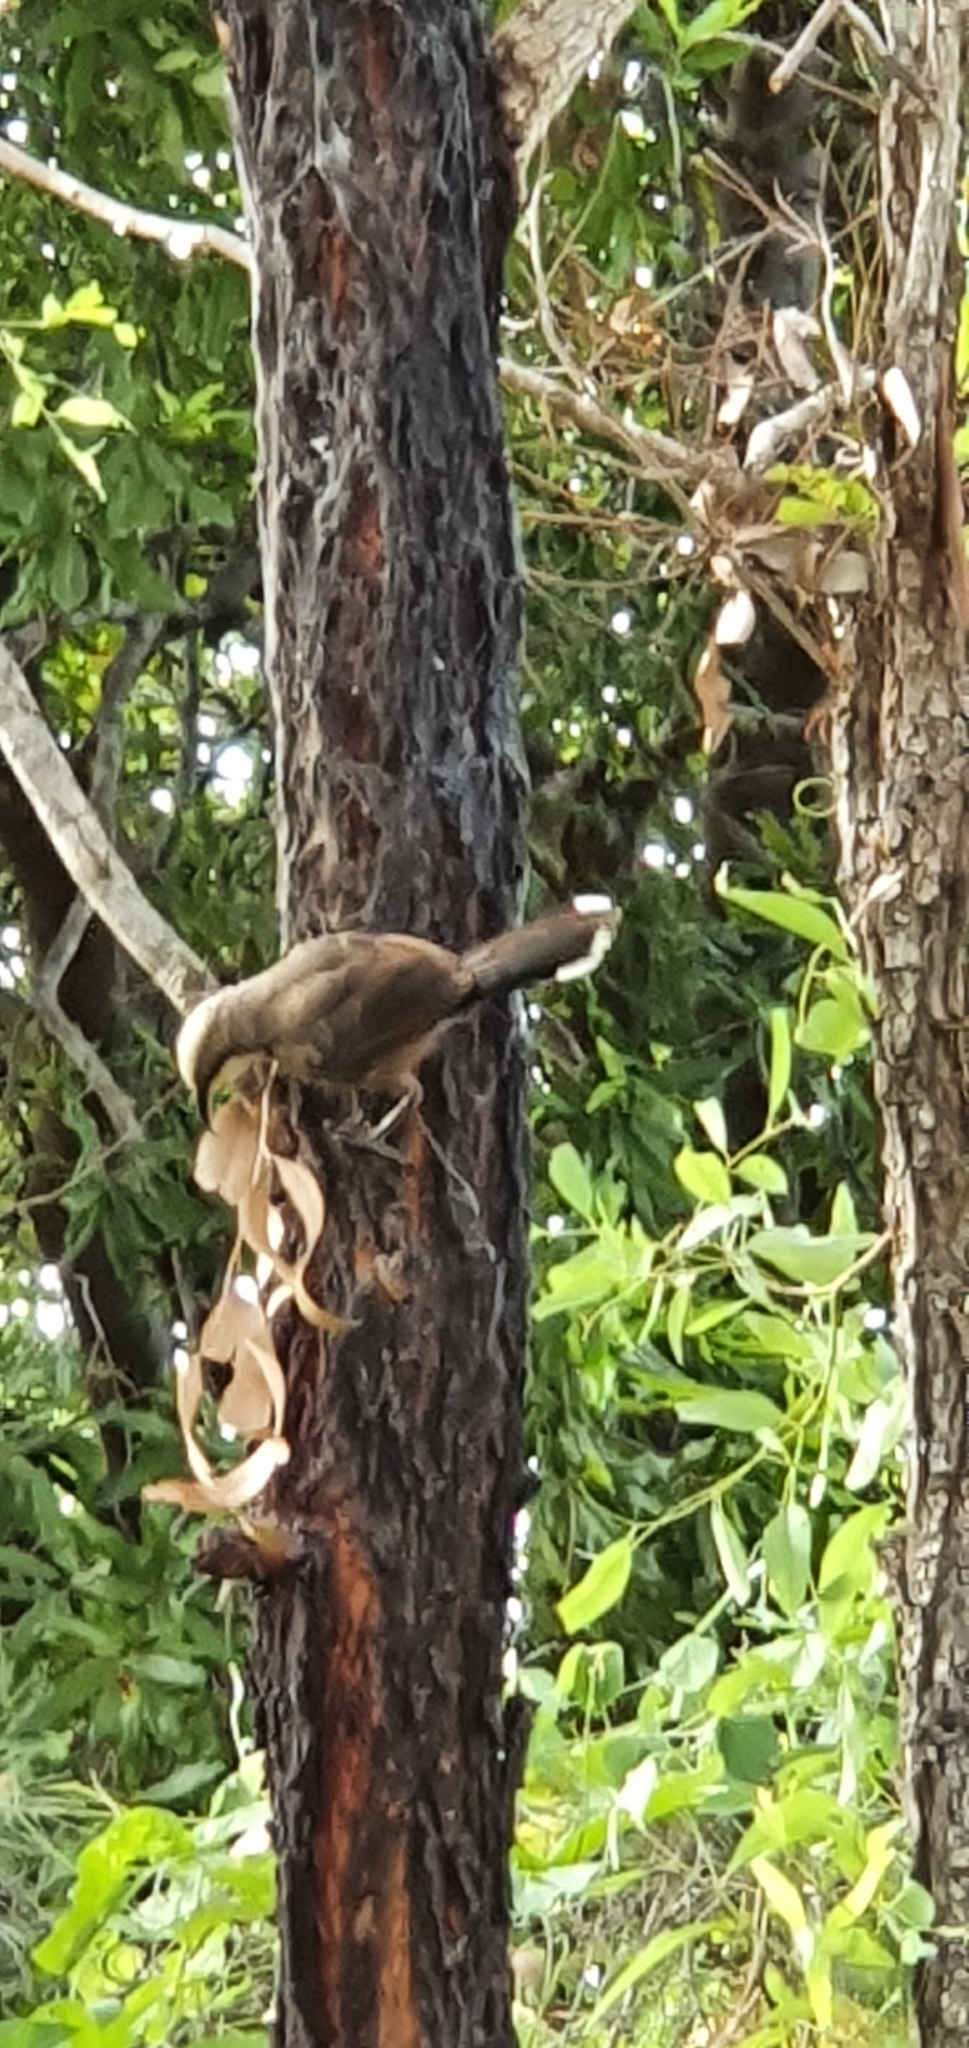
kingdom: Animalia
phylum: Chordata
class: Aves
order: Passeriformes
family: Pomatostomidae
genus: Pomatostomus
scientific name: Pomatostomus temporalis
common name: Grey-crowned babbler
